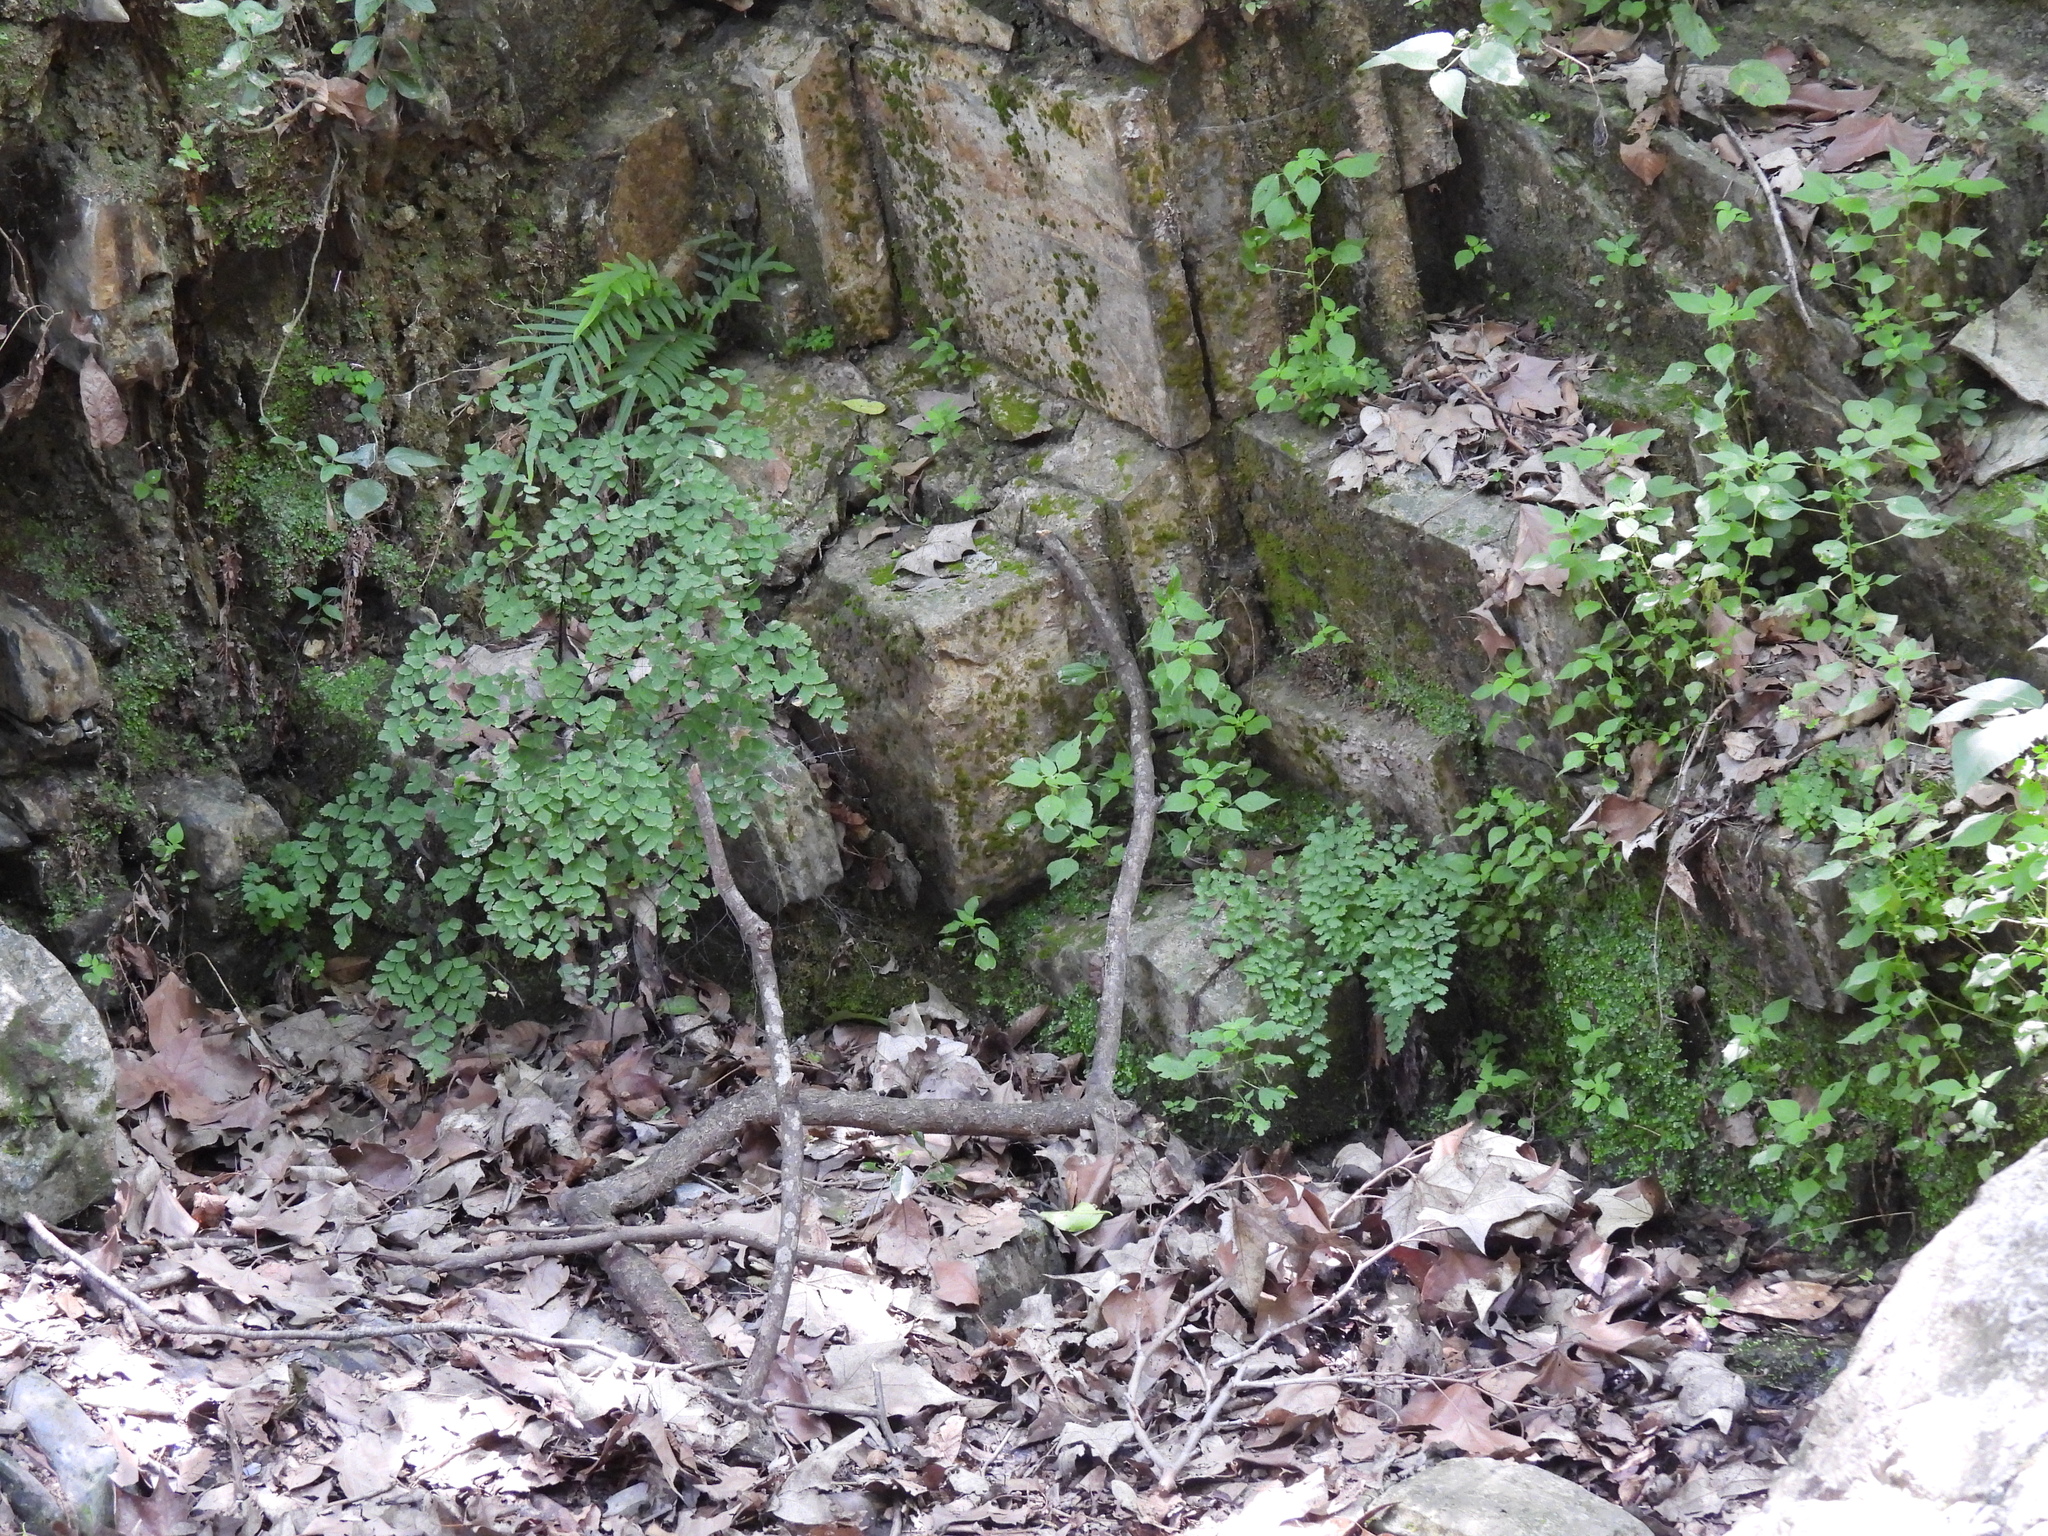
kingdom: Plantae
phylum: Tracheophyta
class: Polypodiopsida
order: Polypodiales
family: Pteridaceae
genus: Adiantum
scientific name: Adiantum capillus-veneris
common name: Maidenhair fern
